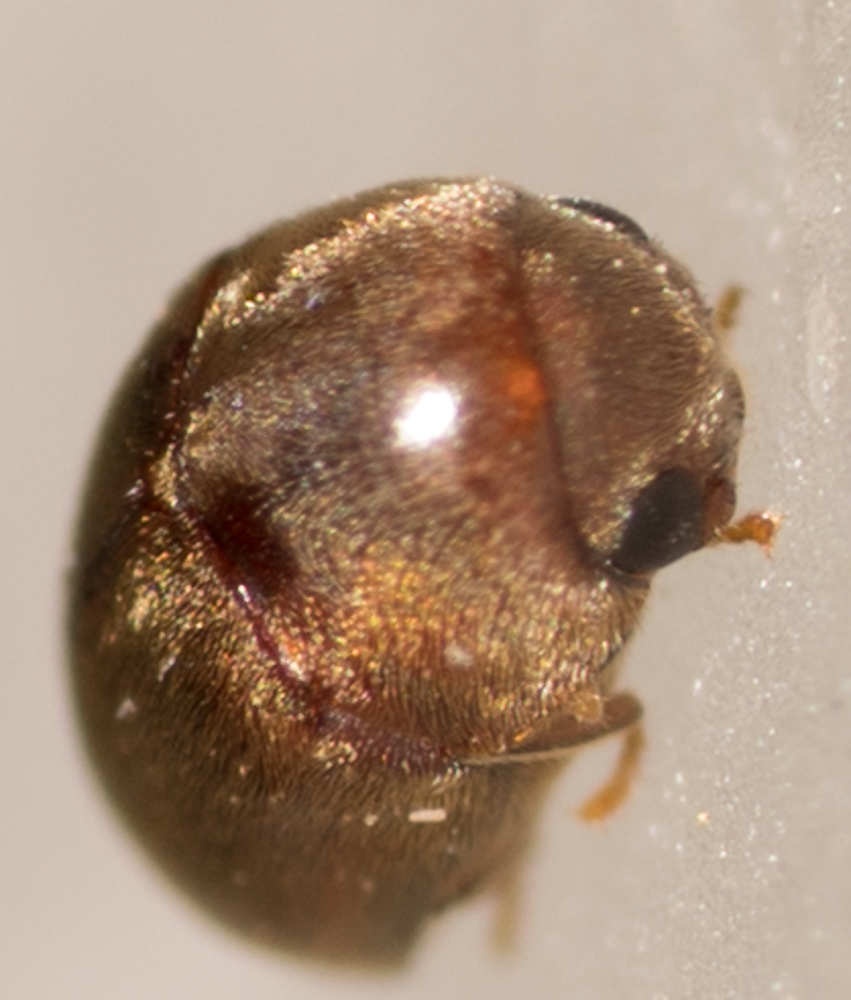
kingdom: Animalia
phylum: Arthropoda
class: Insecta
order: Coleoptera
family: Anobiidae
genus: Mesocoelopus
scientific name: Mesocoelopus collaris
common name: Wood-boring beetle
